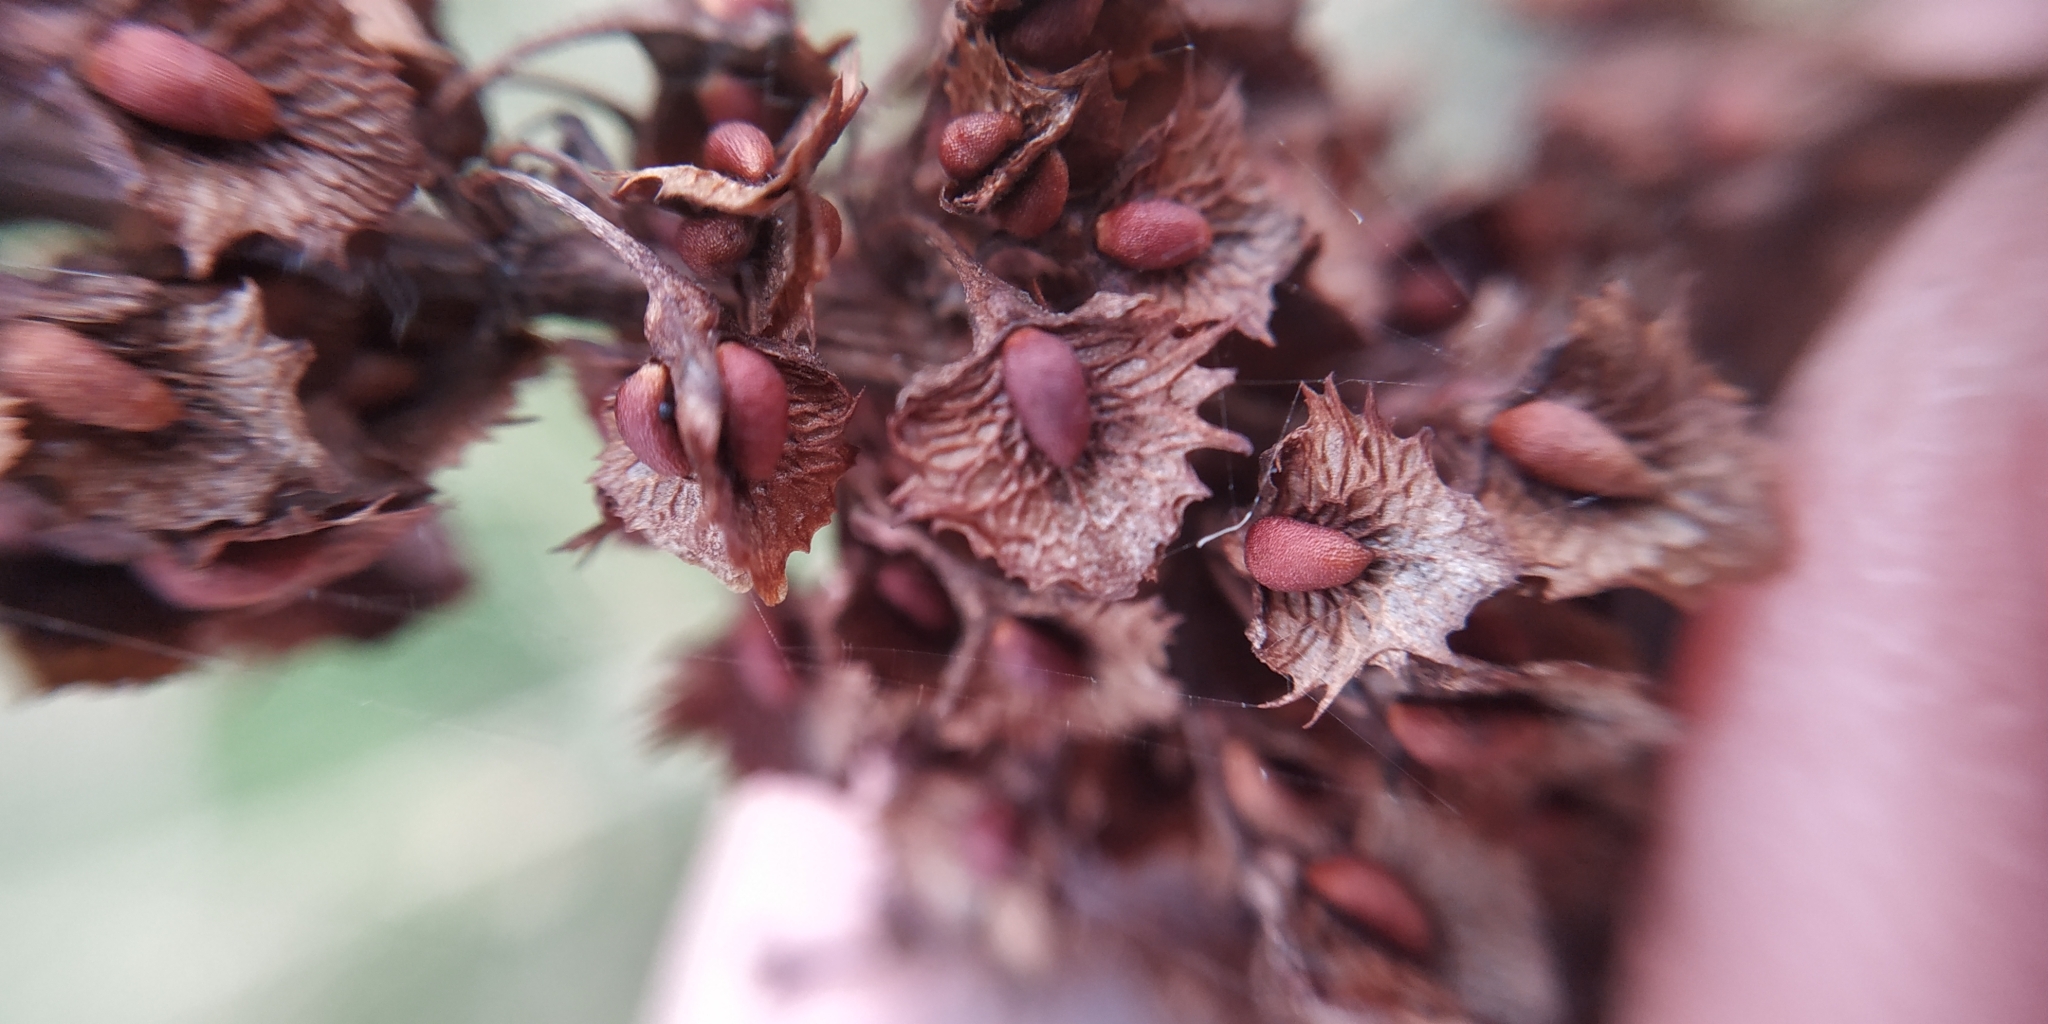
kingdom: Plantae
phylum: Tracheophyta
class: Magnoliopsida
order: Caryophyllales
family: Polygonaceae
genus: Rumex
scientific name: Rumex stenophyllus
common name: Narrowleaf dock
